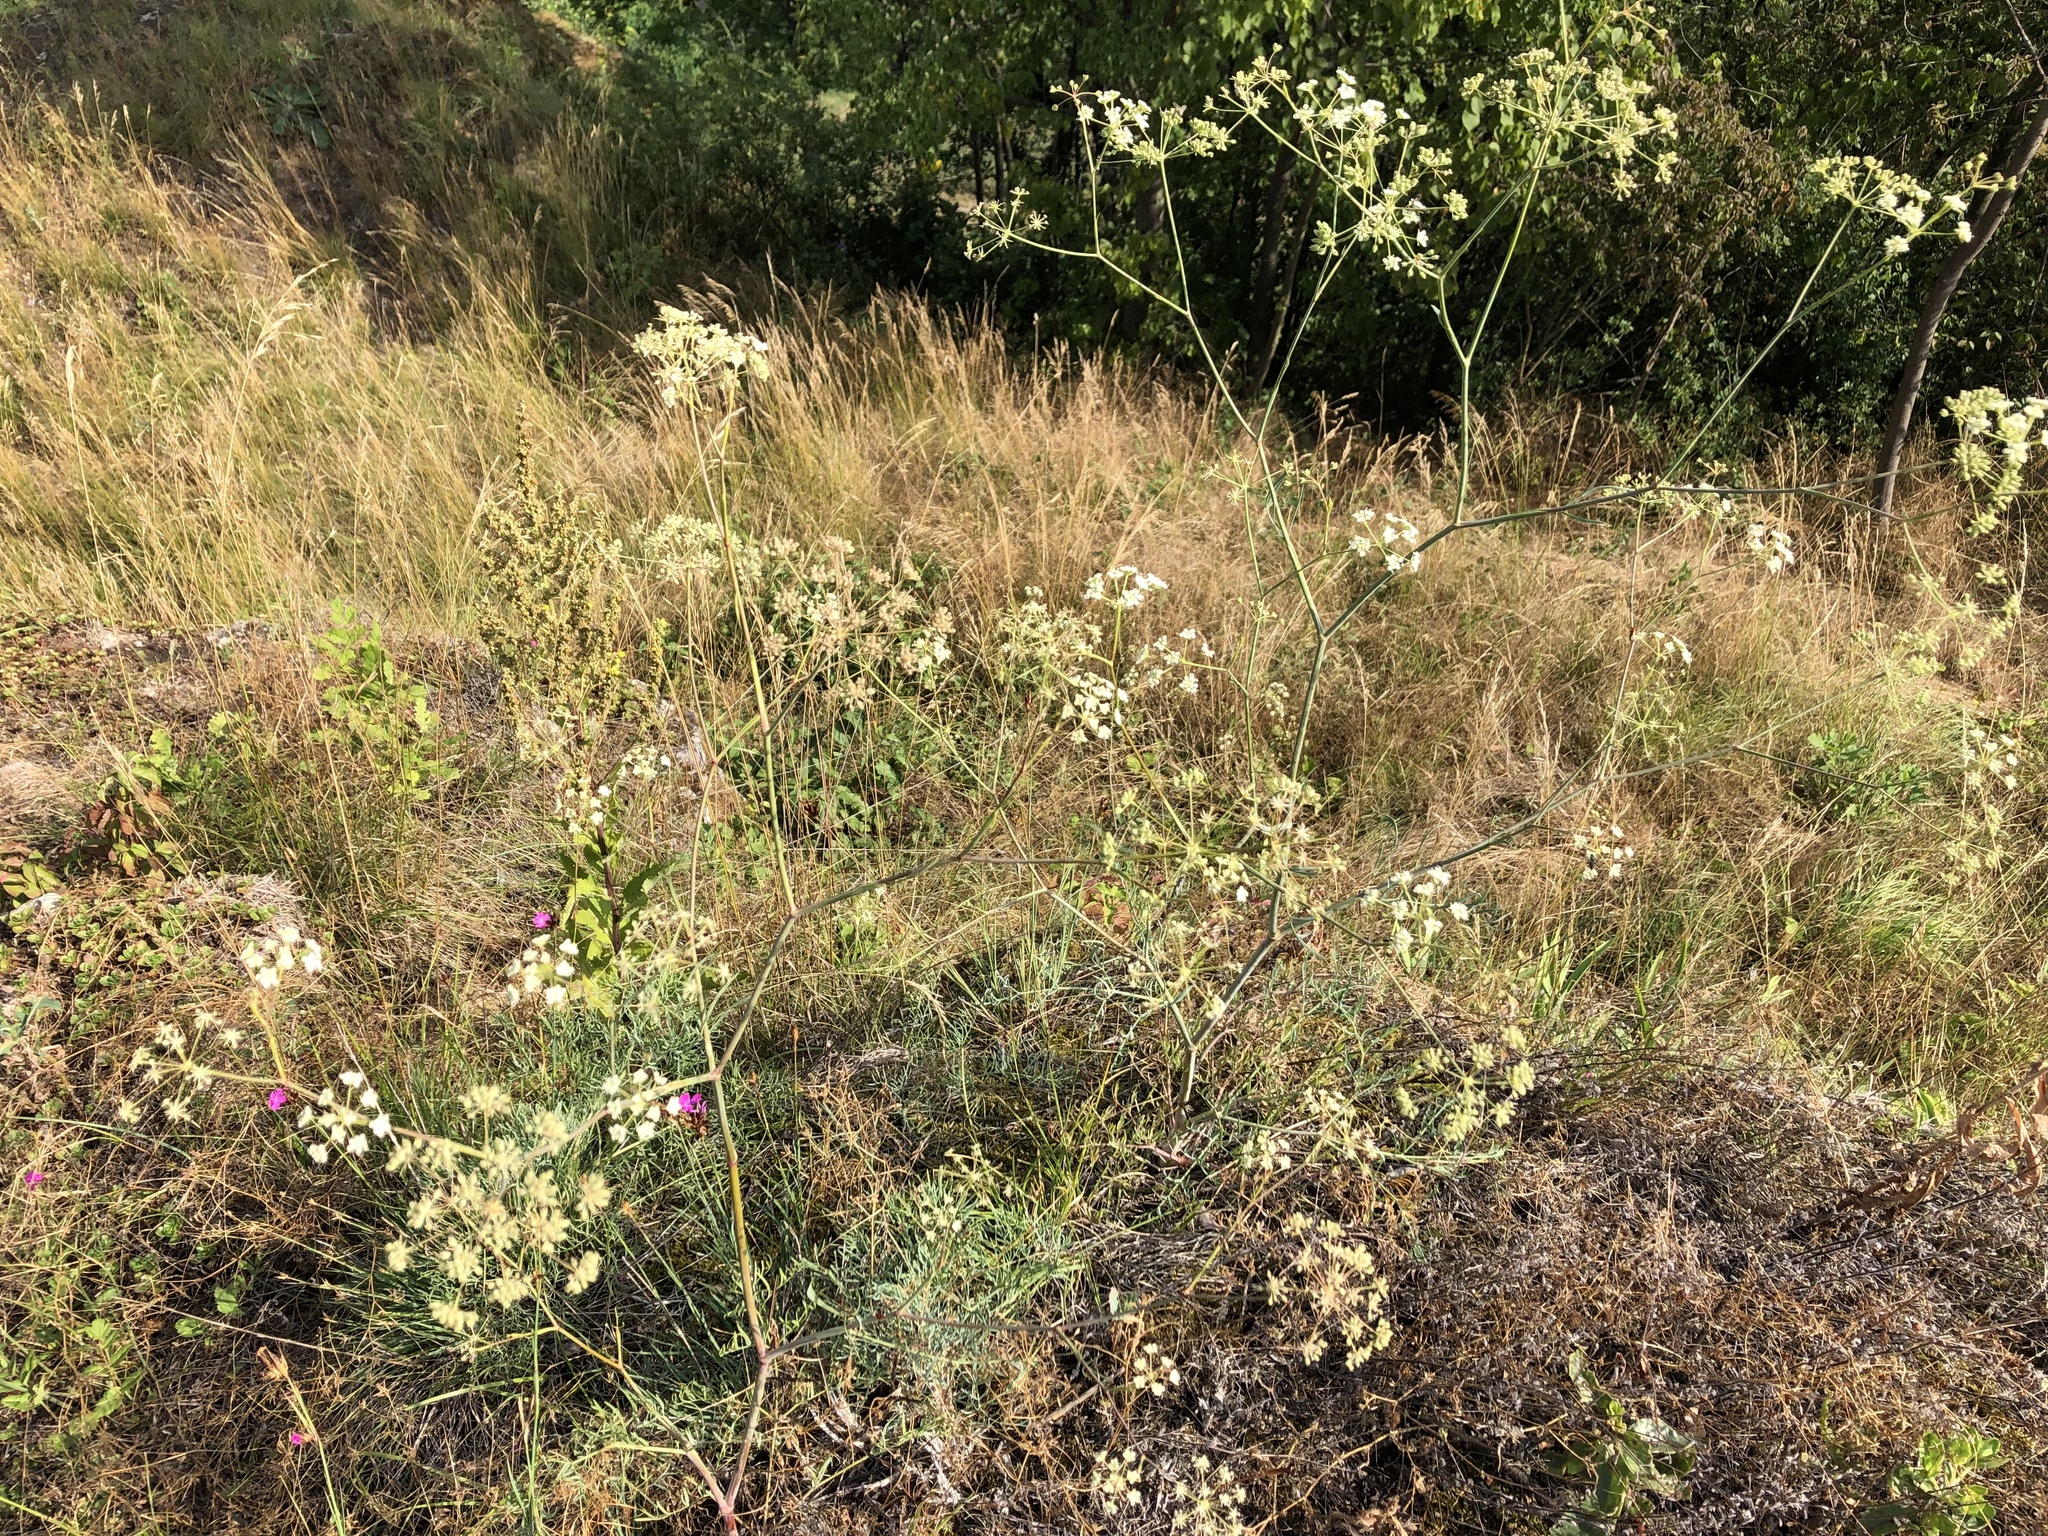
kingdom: Plantae
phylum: Tracheophyta
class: Magnoliopsida
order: Apiales
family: Apiaceae
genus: Seseli
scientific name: Seseli osseum
